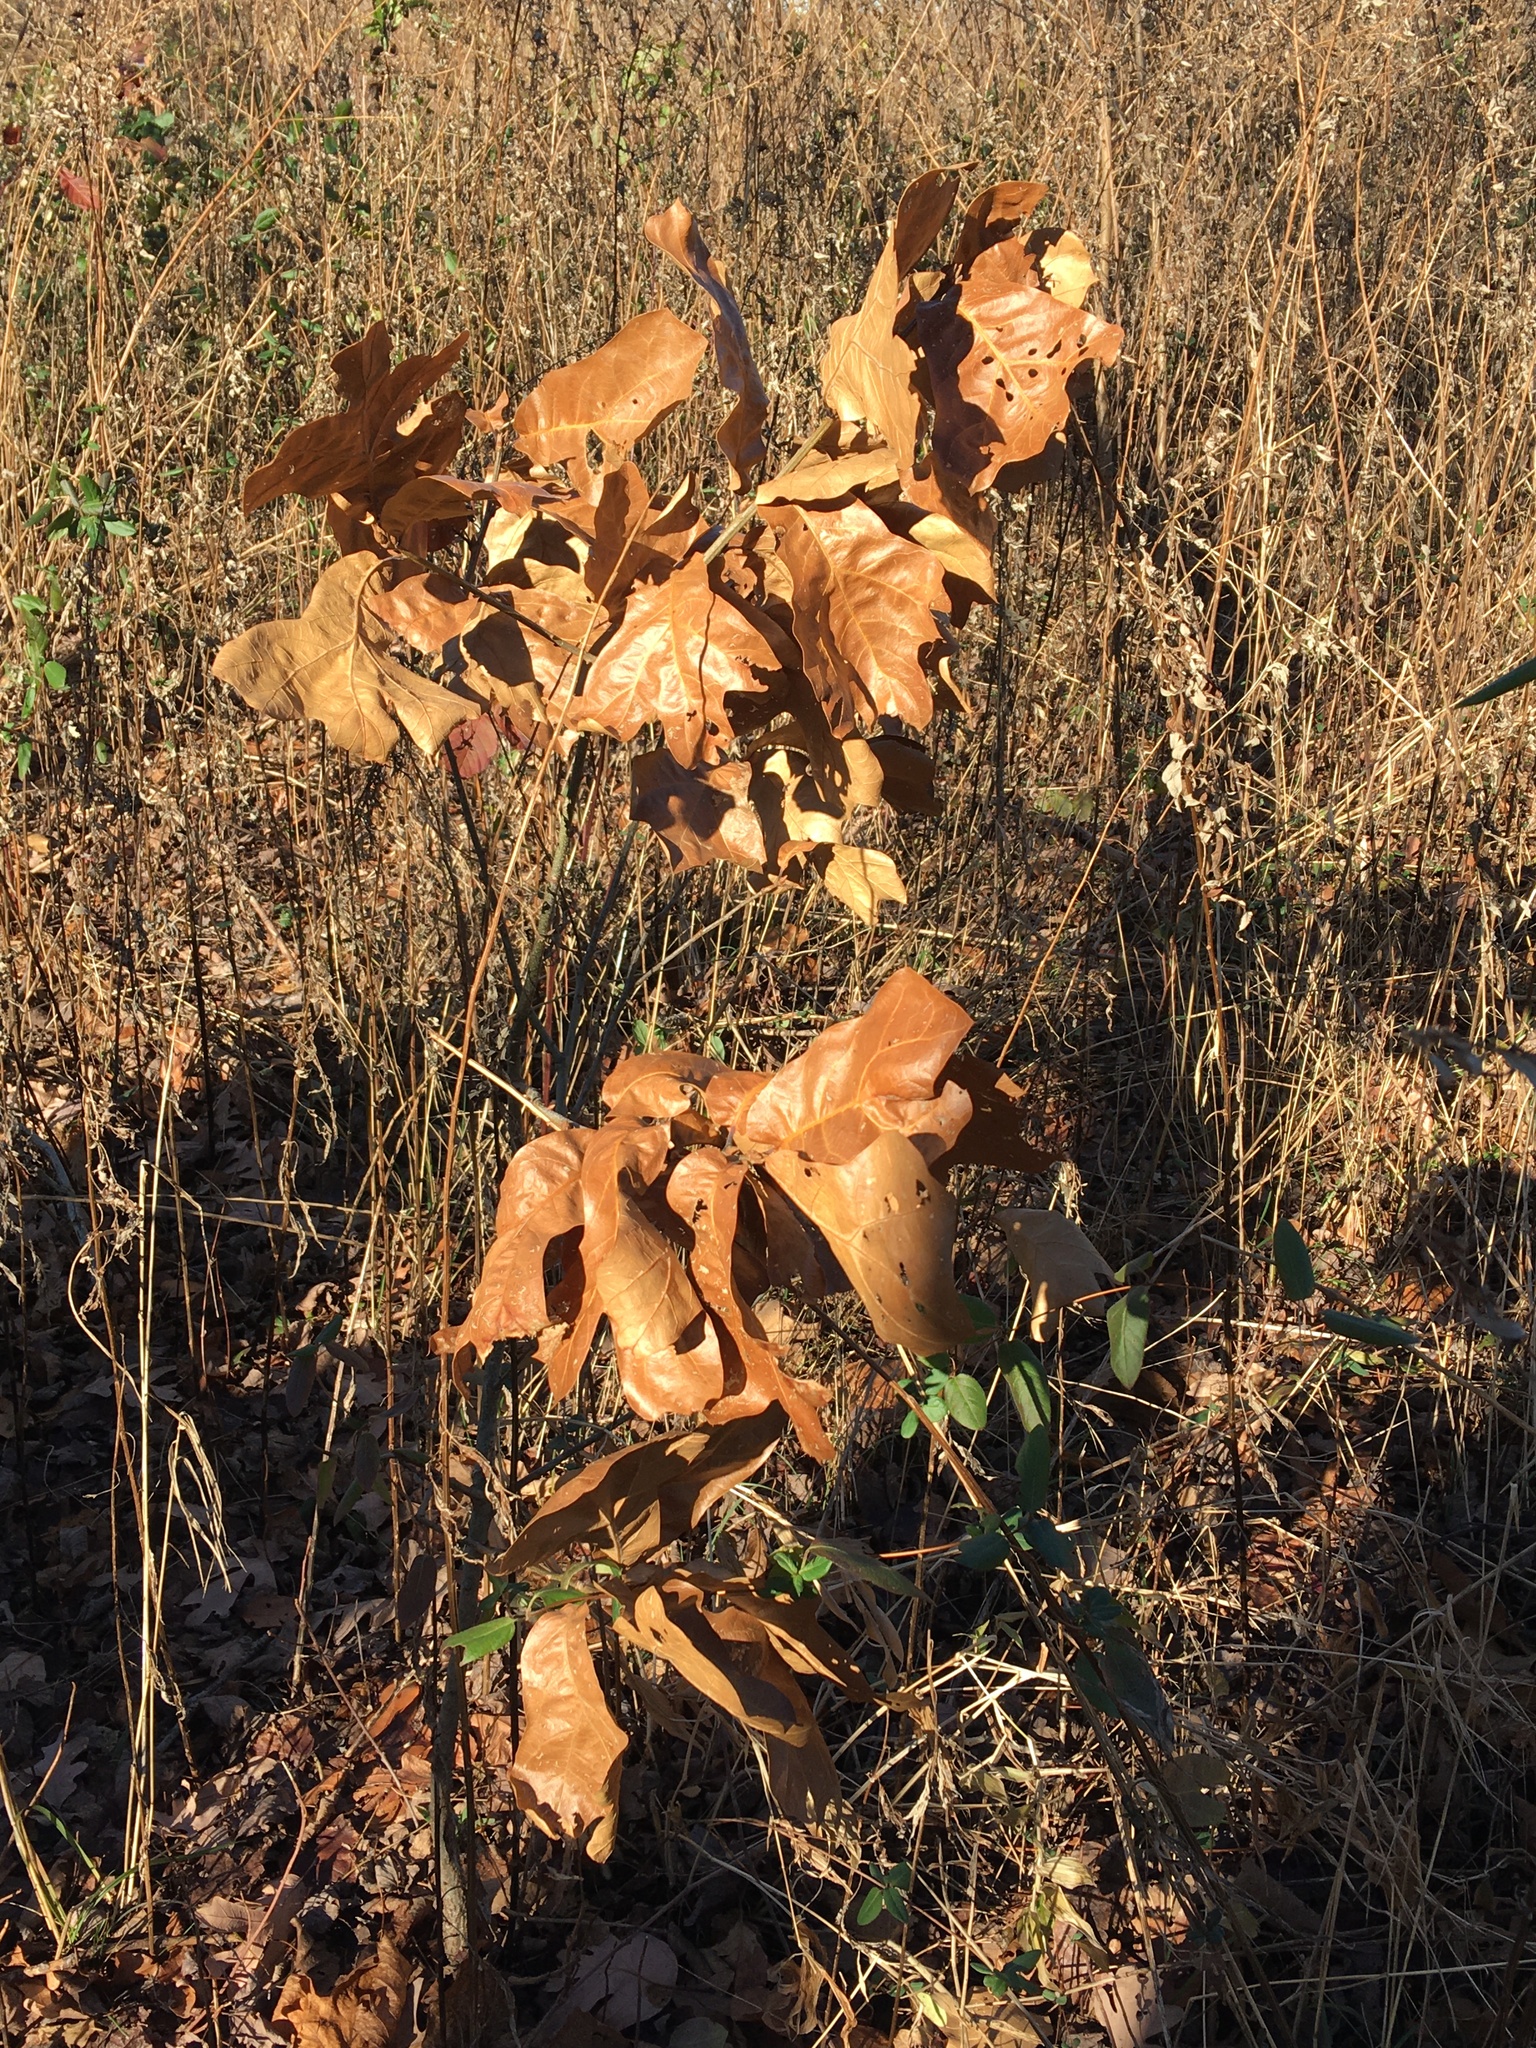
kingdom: Plantae
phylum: Tracheophyta
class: Magnoliopsida
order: Fagales
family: Fagaceae
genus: Quercus
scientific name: Quercus marilandica
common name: Blackjack oak
